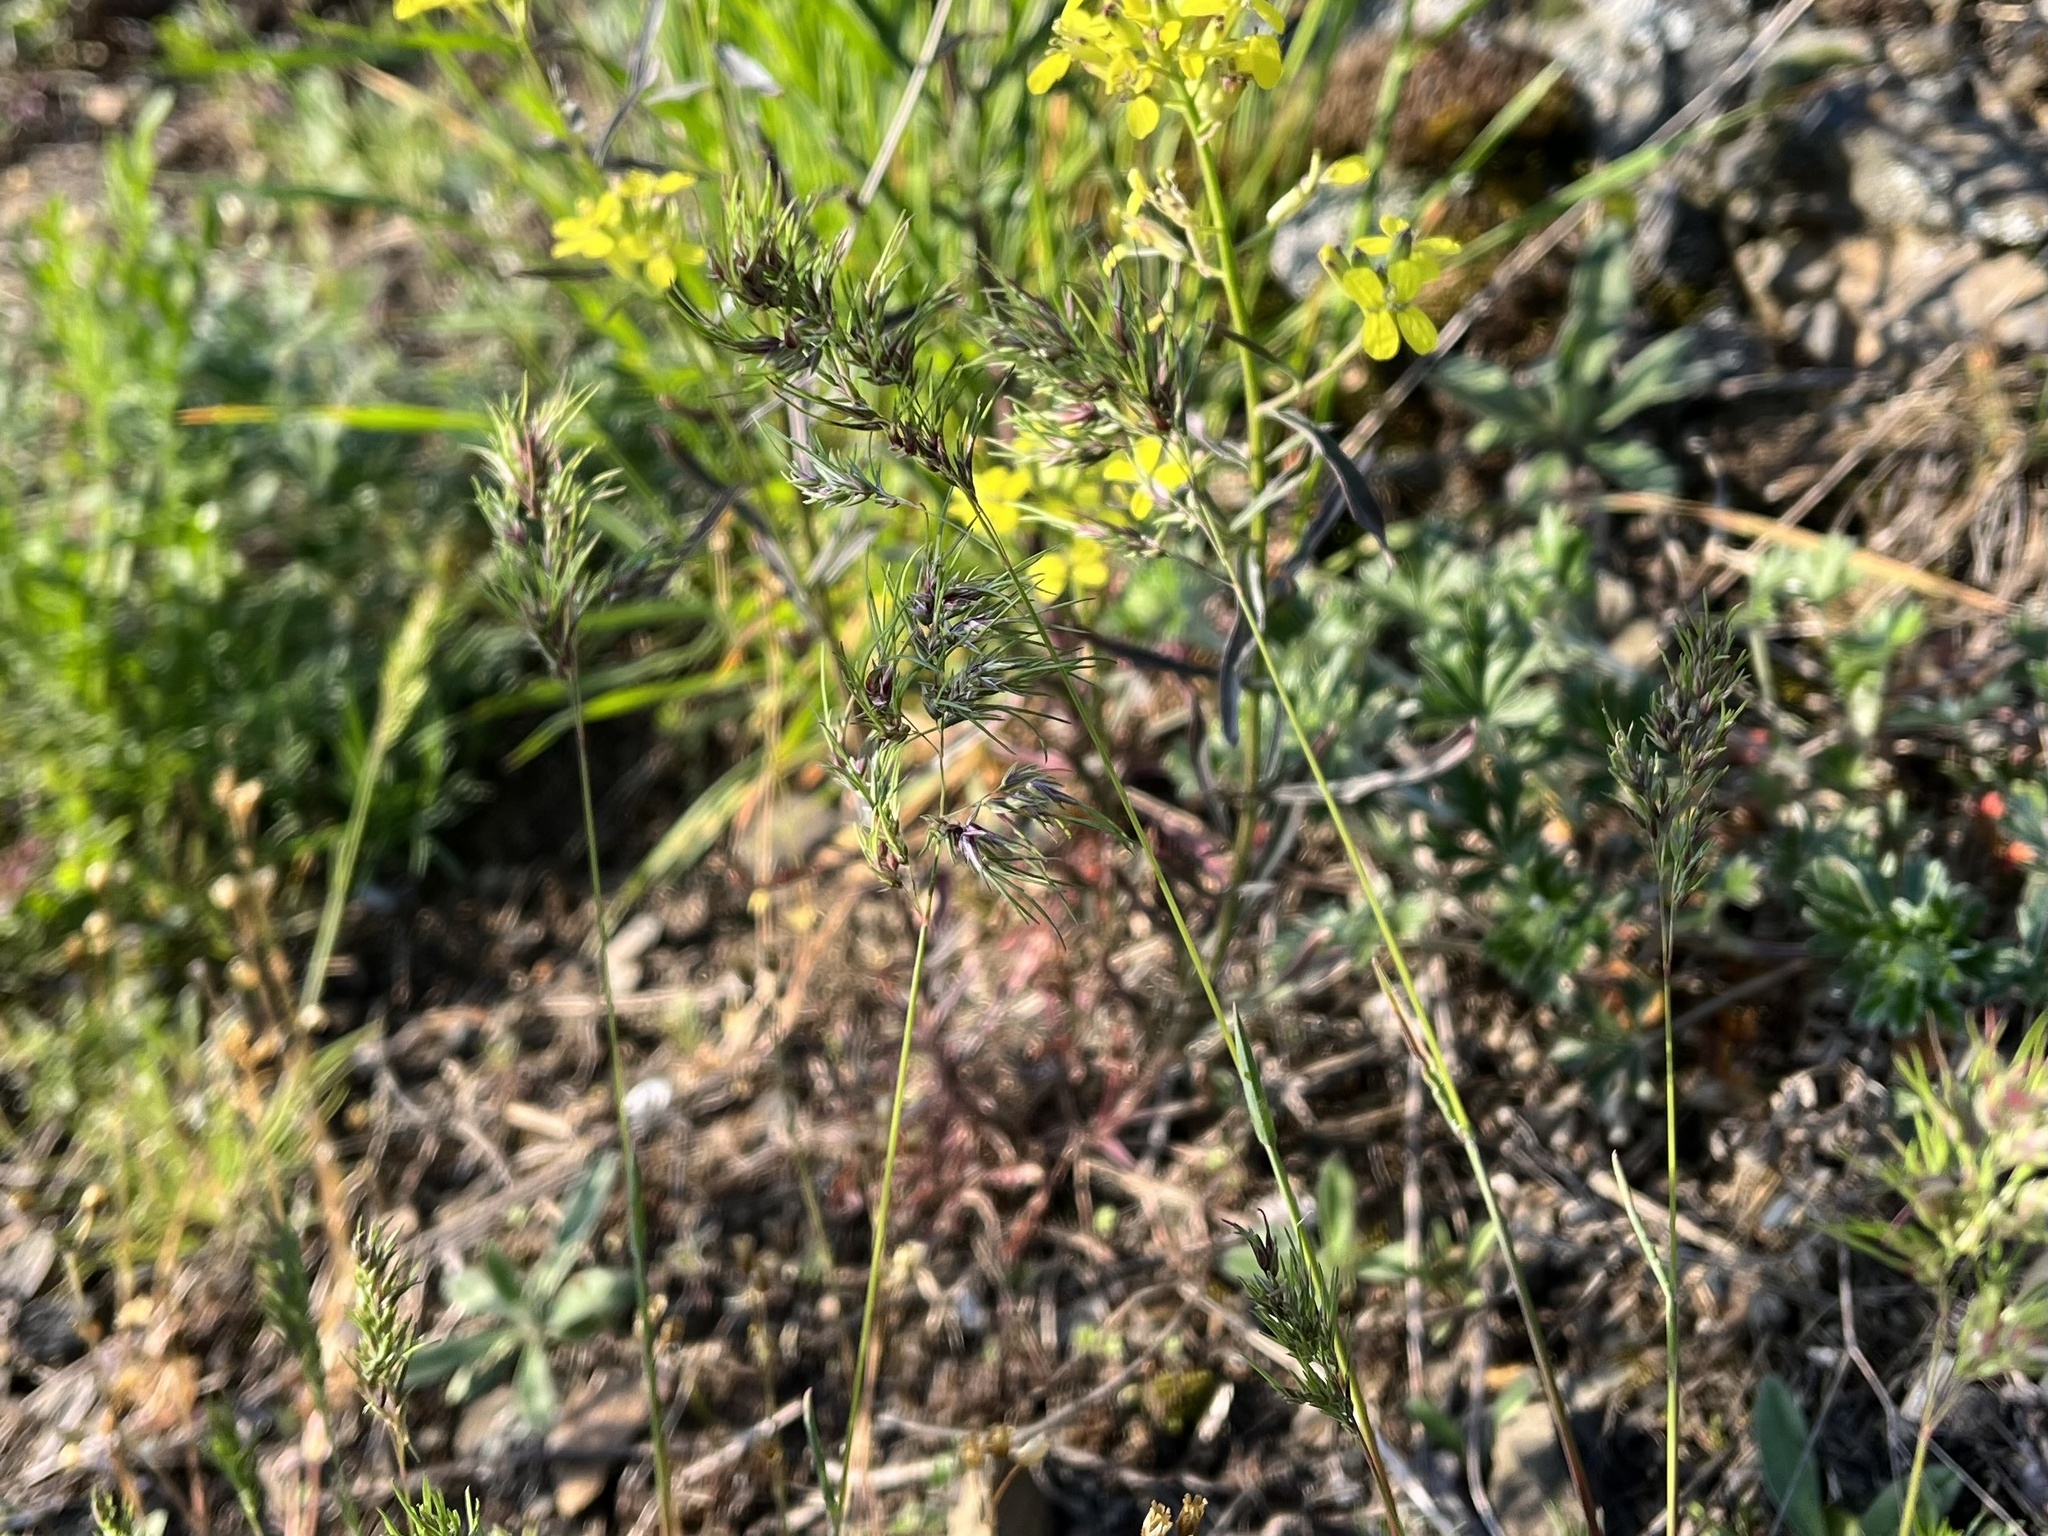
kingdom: Plantae
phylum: Tracheophyta
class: Liliopsida
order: Poales
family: Poaceae
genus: Poa
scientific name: Poa bulbosa
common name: Bulbous bluegrass
